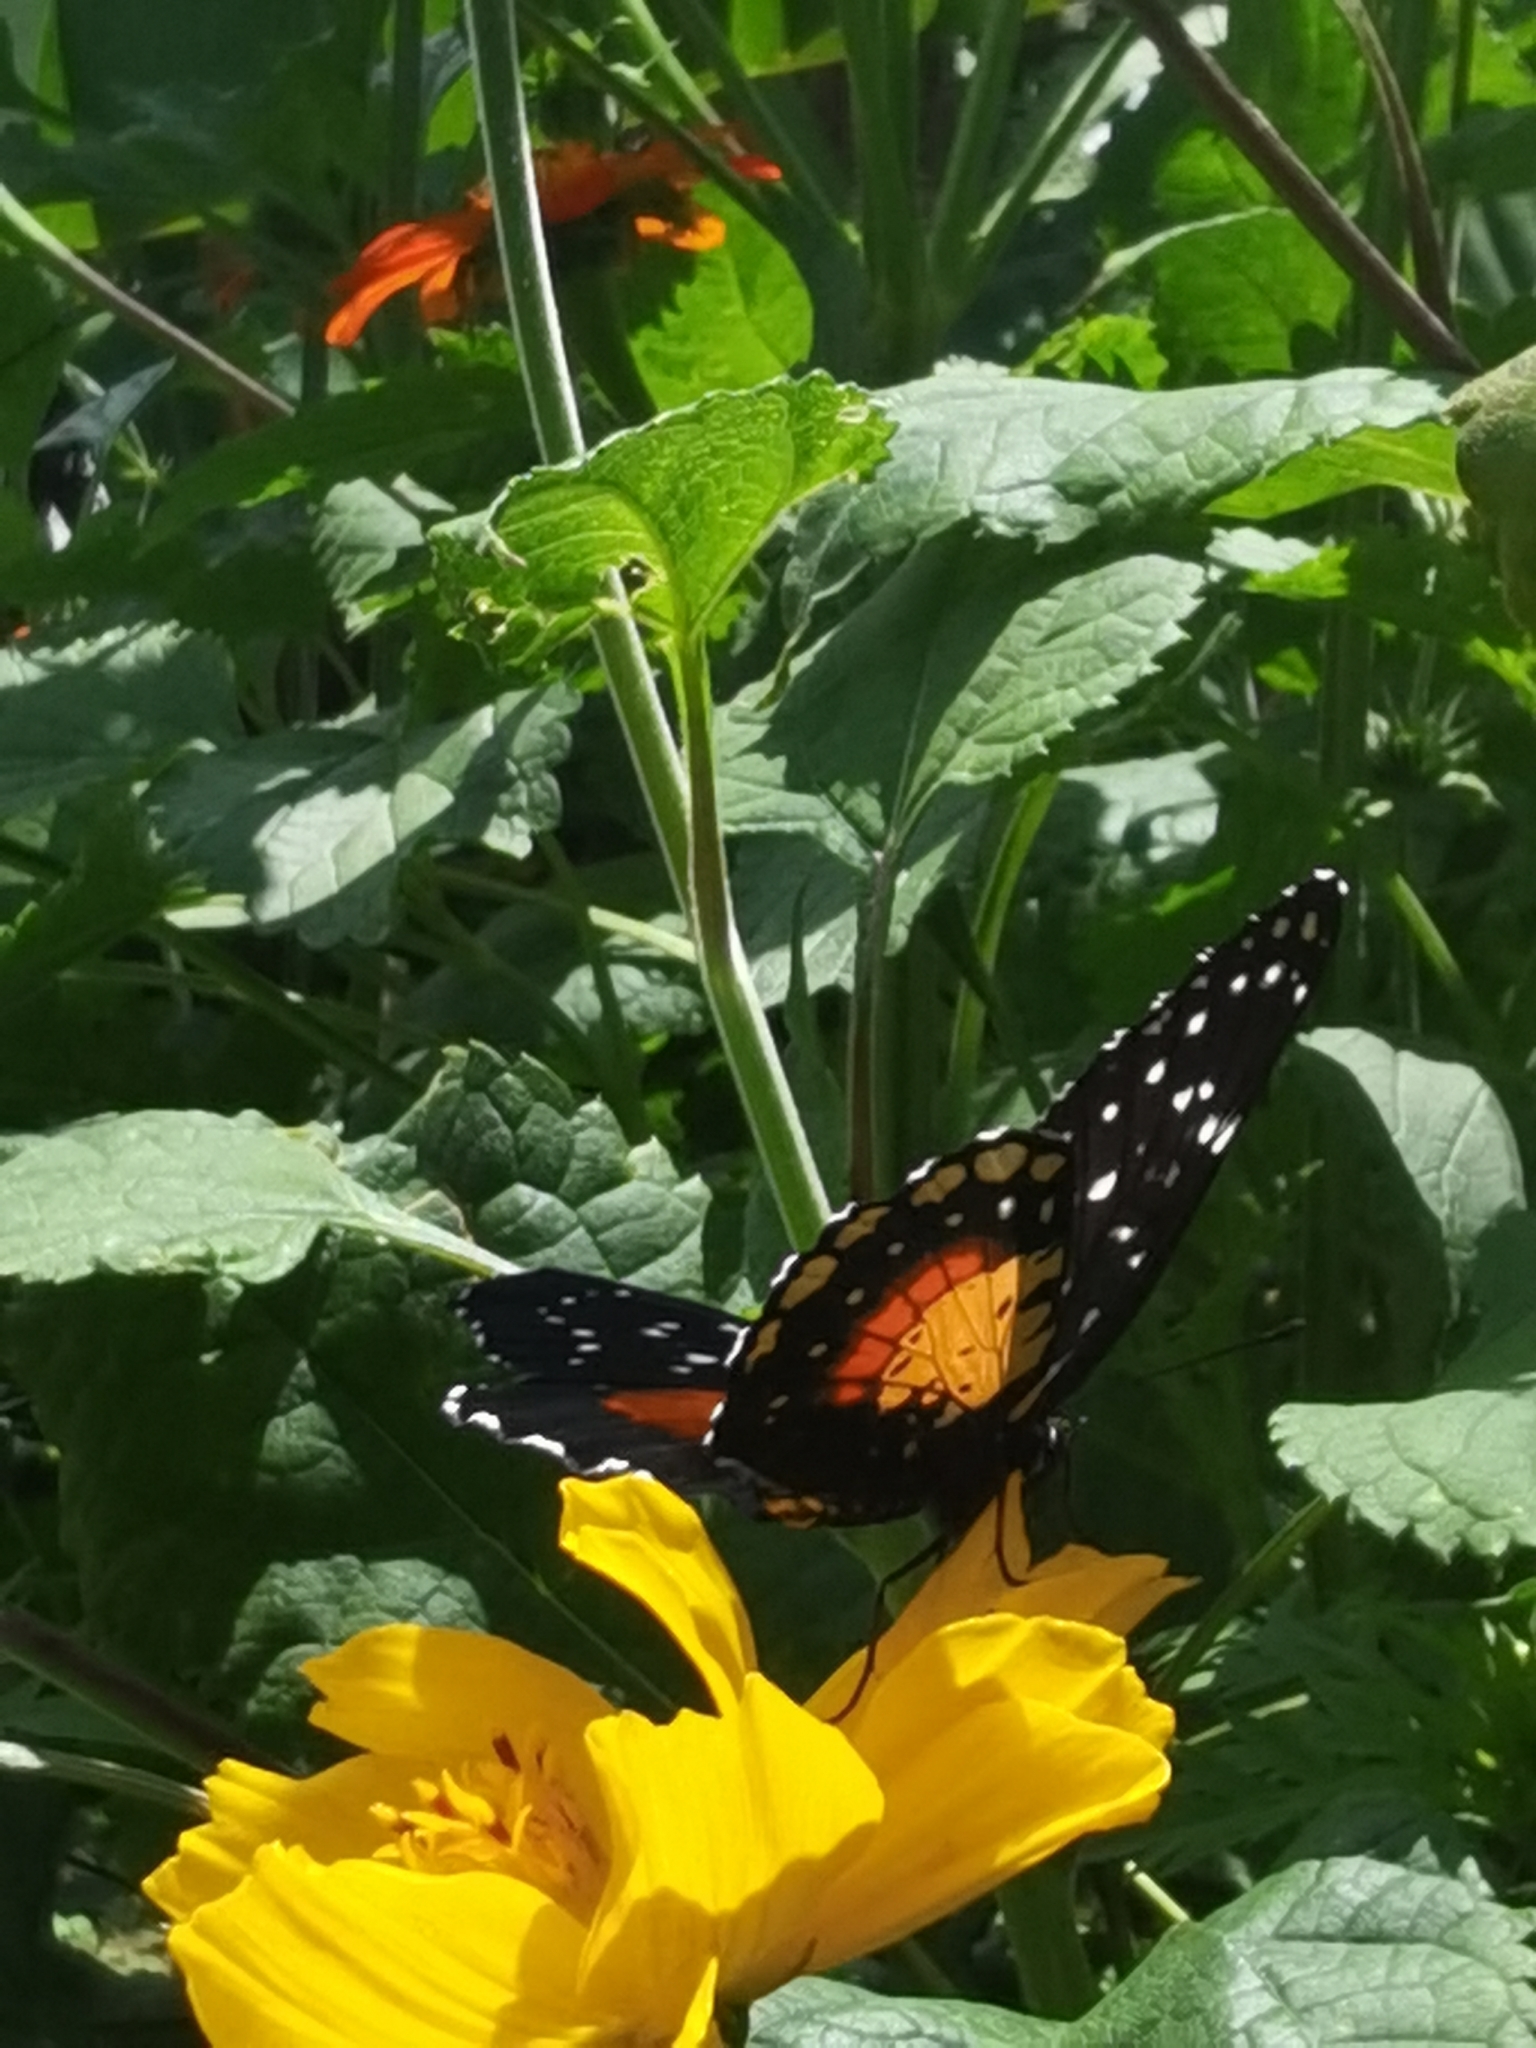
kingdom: Animalia
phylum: Arthropoda
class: Insecta
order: Lepidoptera
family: Nymphalidae
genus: Chlosyne
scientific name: Chlosyne janais
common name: Crimson patch
